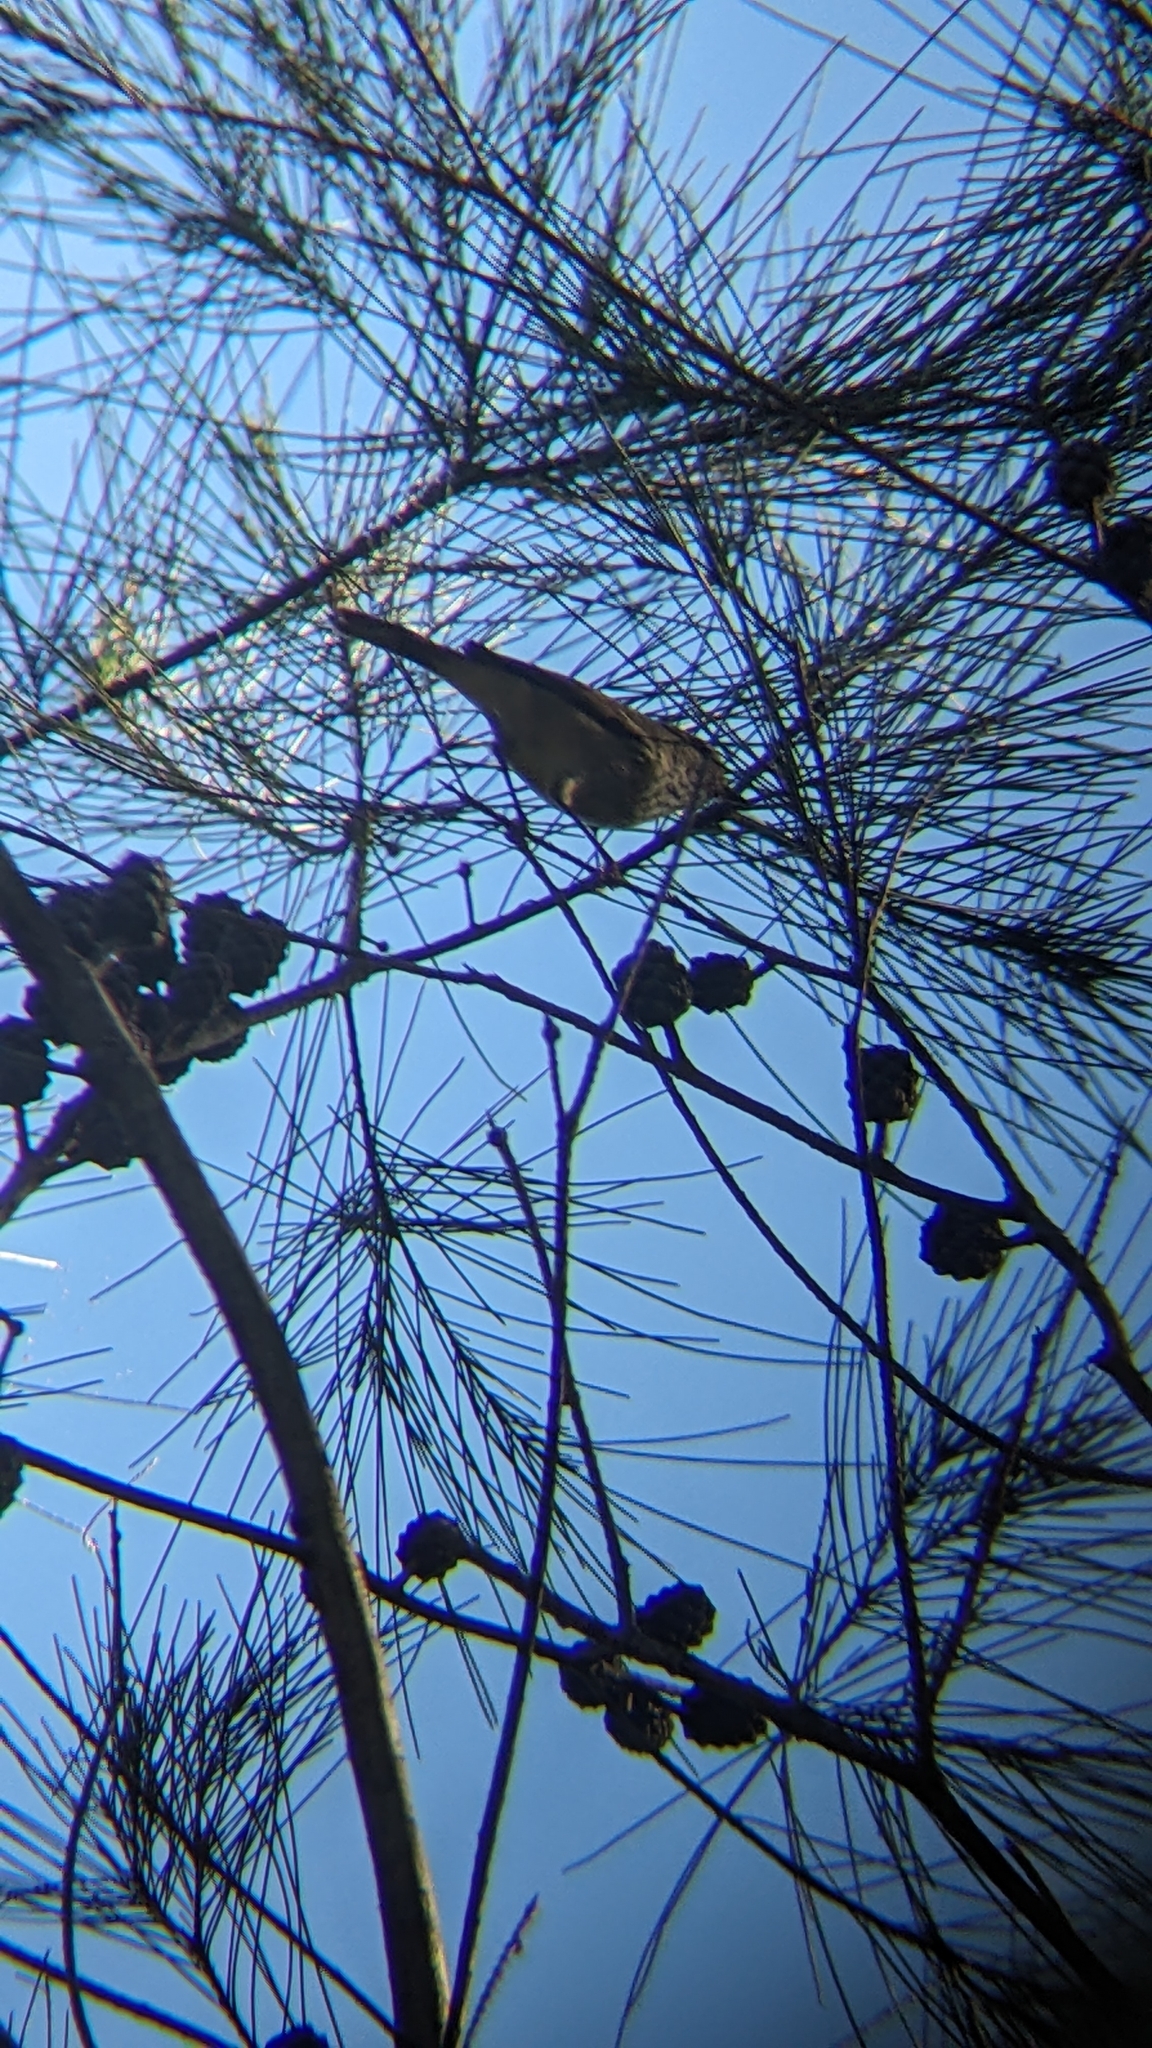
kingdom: Animalia
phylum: Chordata
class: Aves
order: Passeriformes
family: Acanthizidae
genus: Acanthiza
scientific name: Acanthiza pusilla
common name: Brown thornbill
